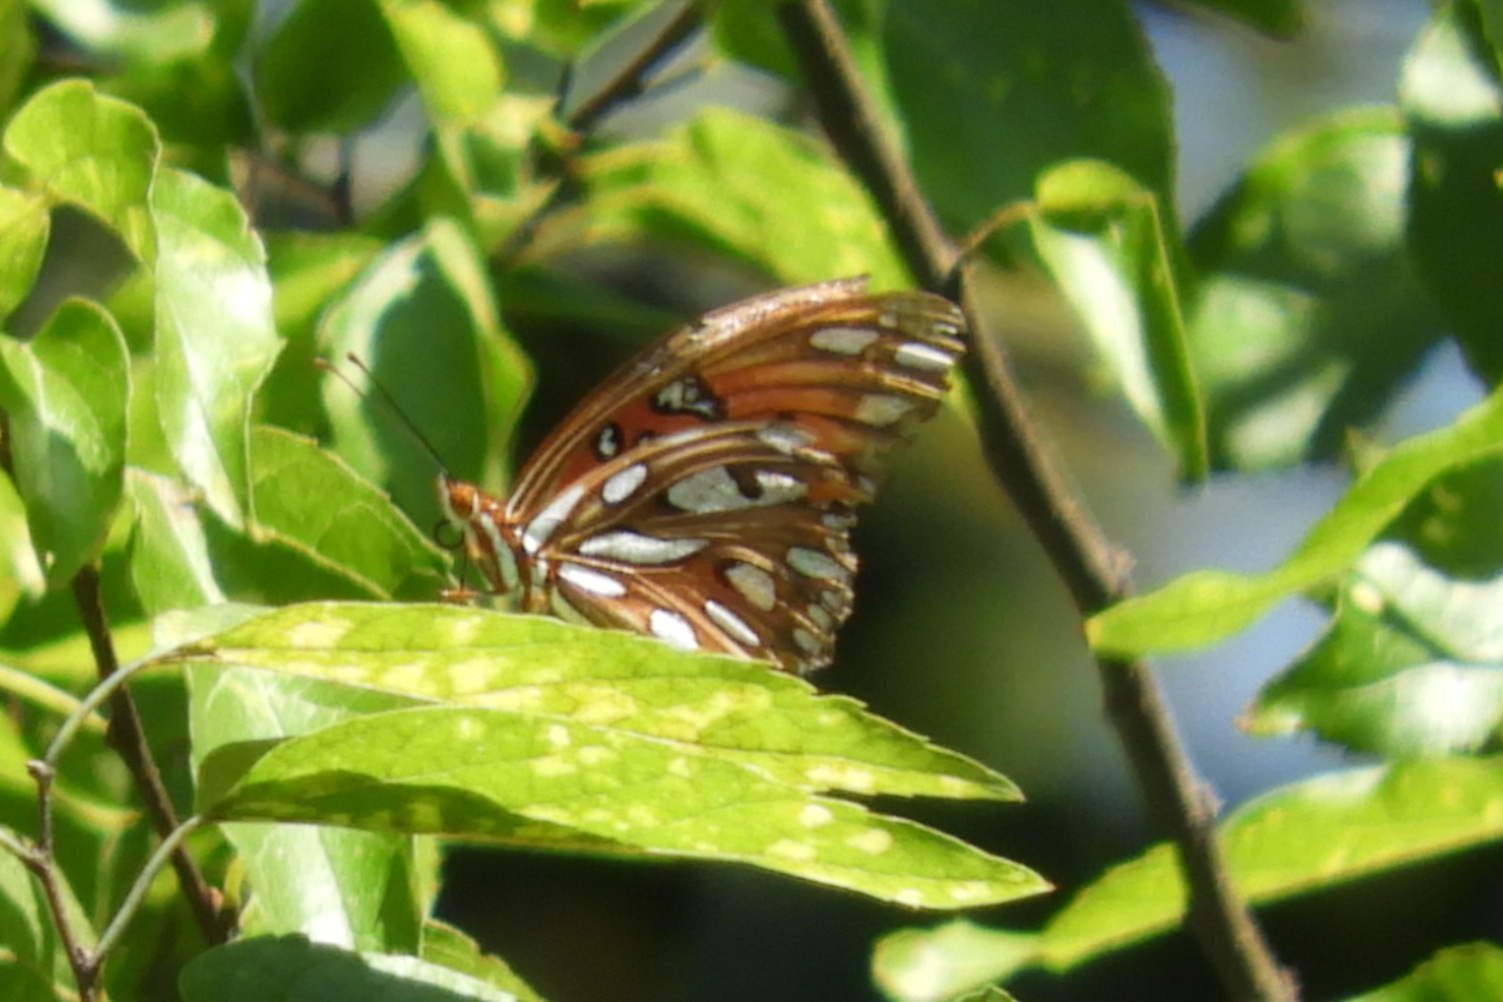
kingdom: Animalia
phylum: Arthropoda
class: Insecta
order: Lepidoptera
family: Nymphalidae
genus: Dione
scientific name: Dione vanillae
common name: Gulf fritillary
